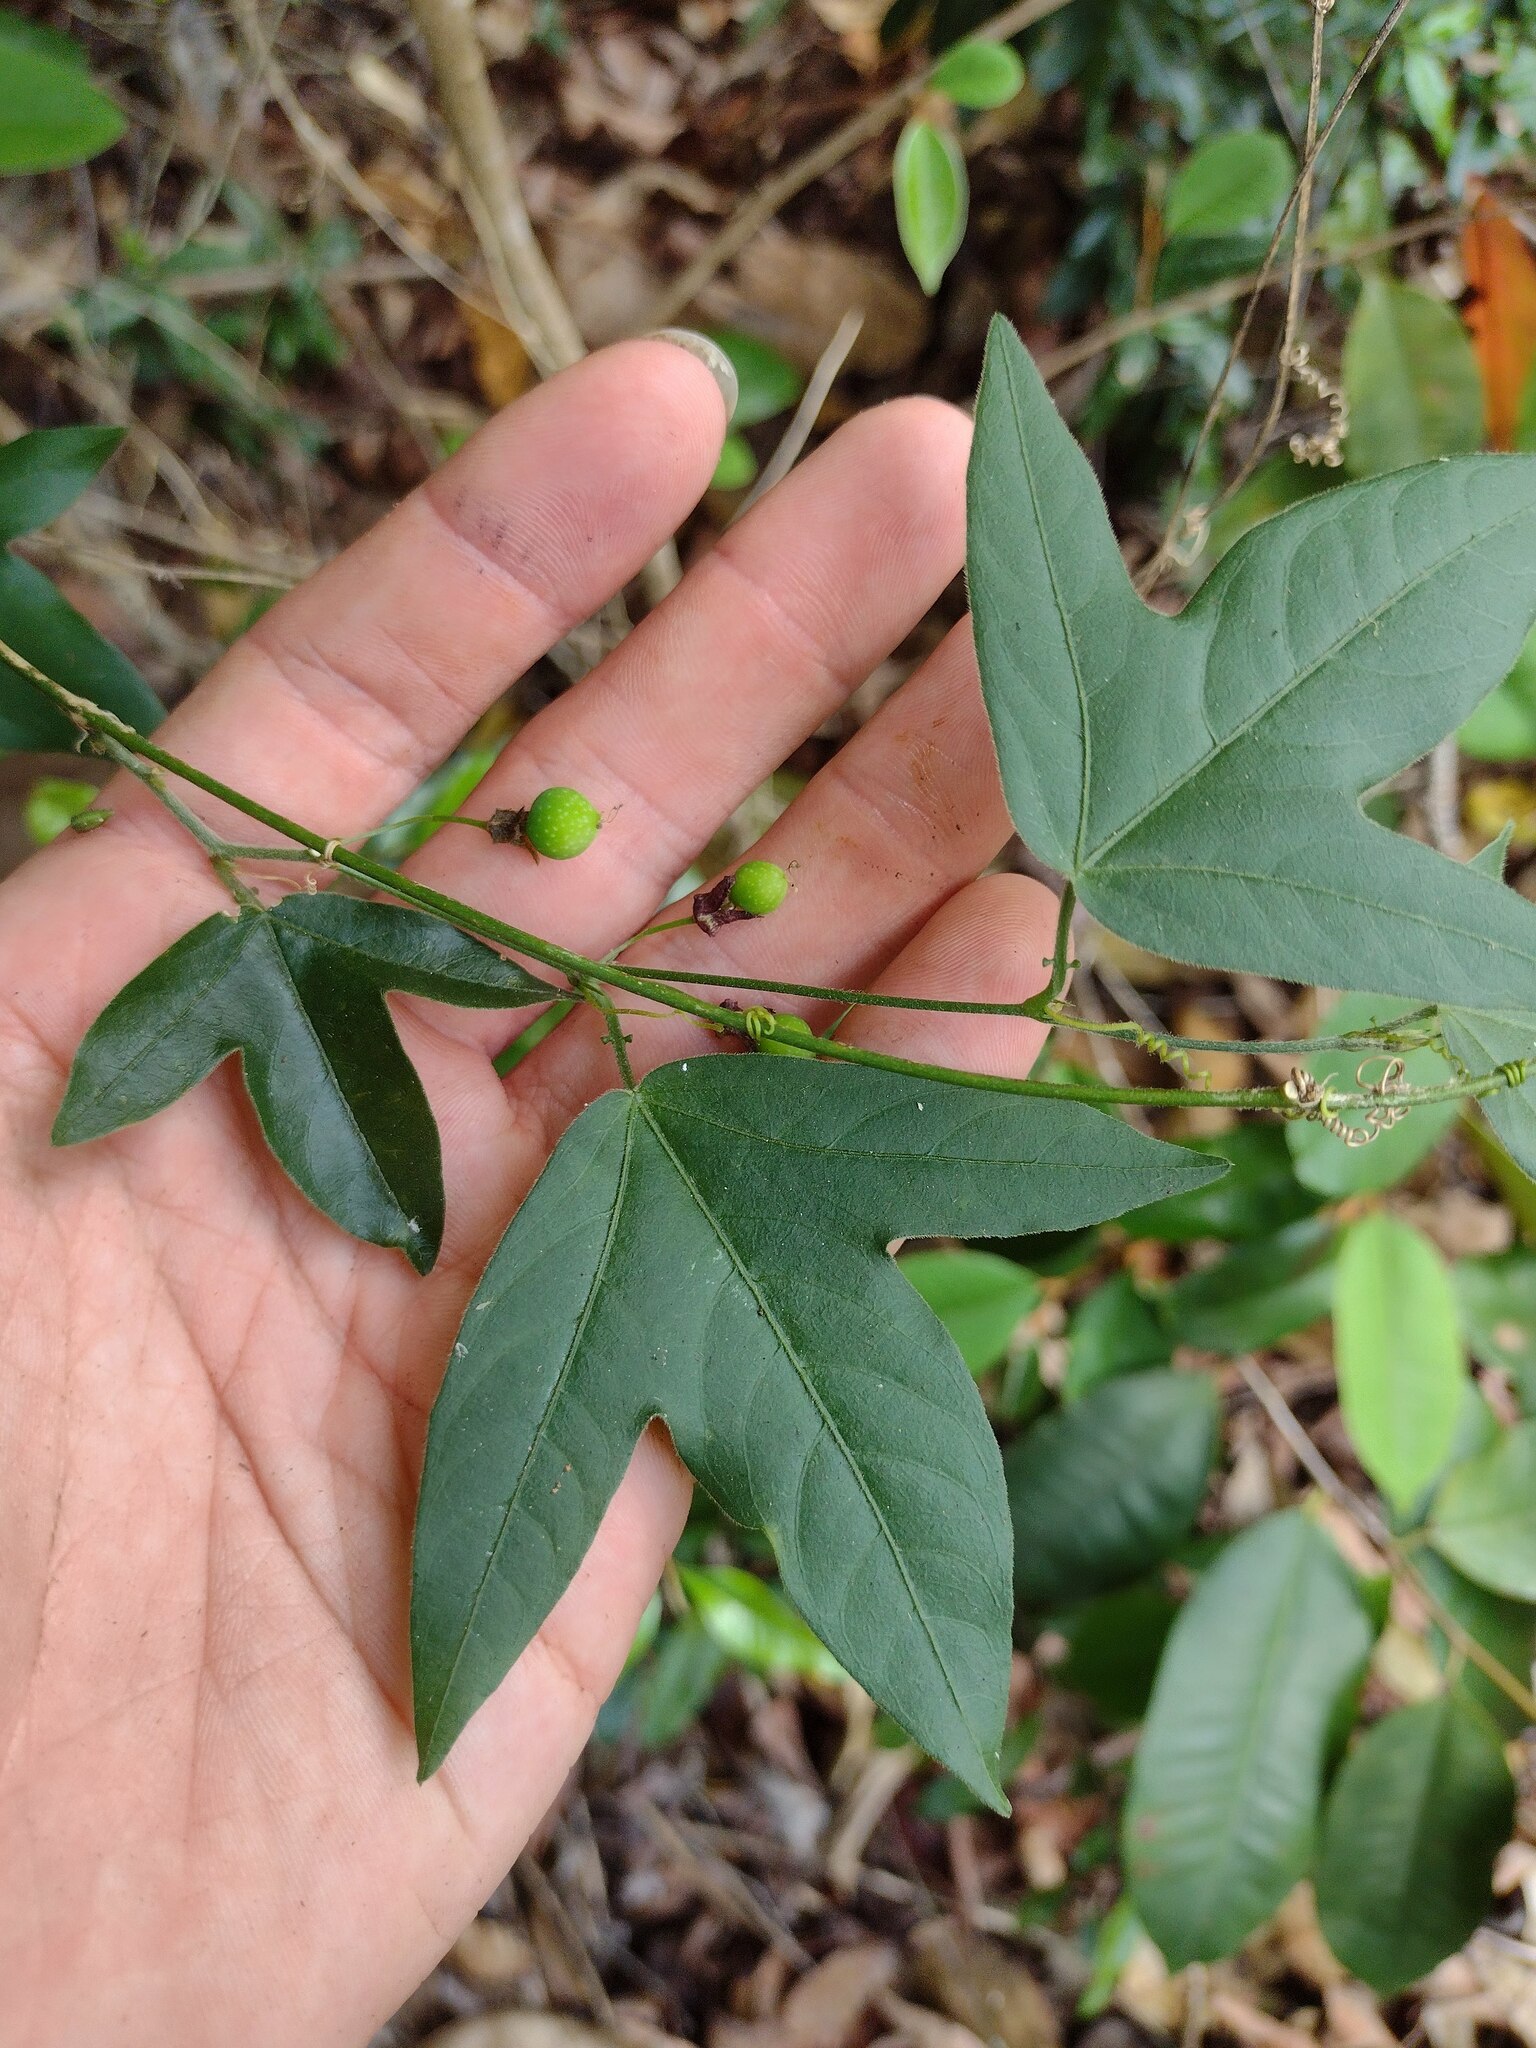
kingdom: Plantae
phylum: Tracheophyta
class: Magnoliopsida
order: Malpighiales
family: Passifloraceae
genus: Passiflora
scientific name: Passiflora suberosa
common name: Wild passionfruit
